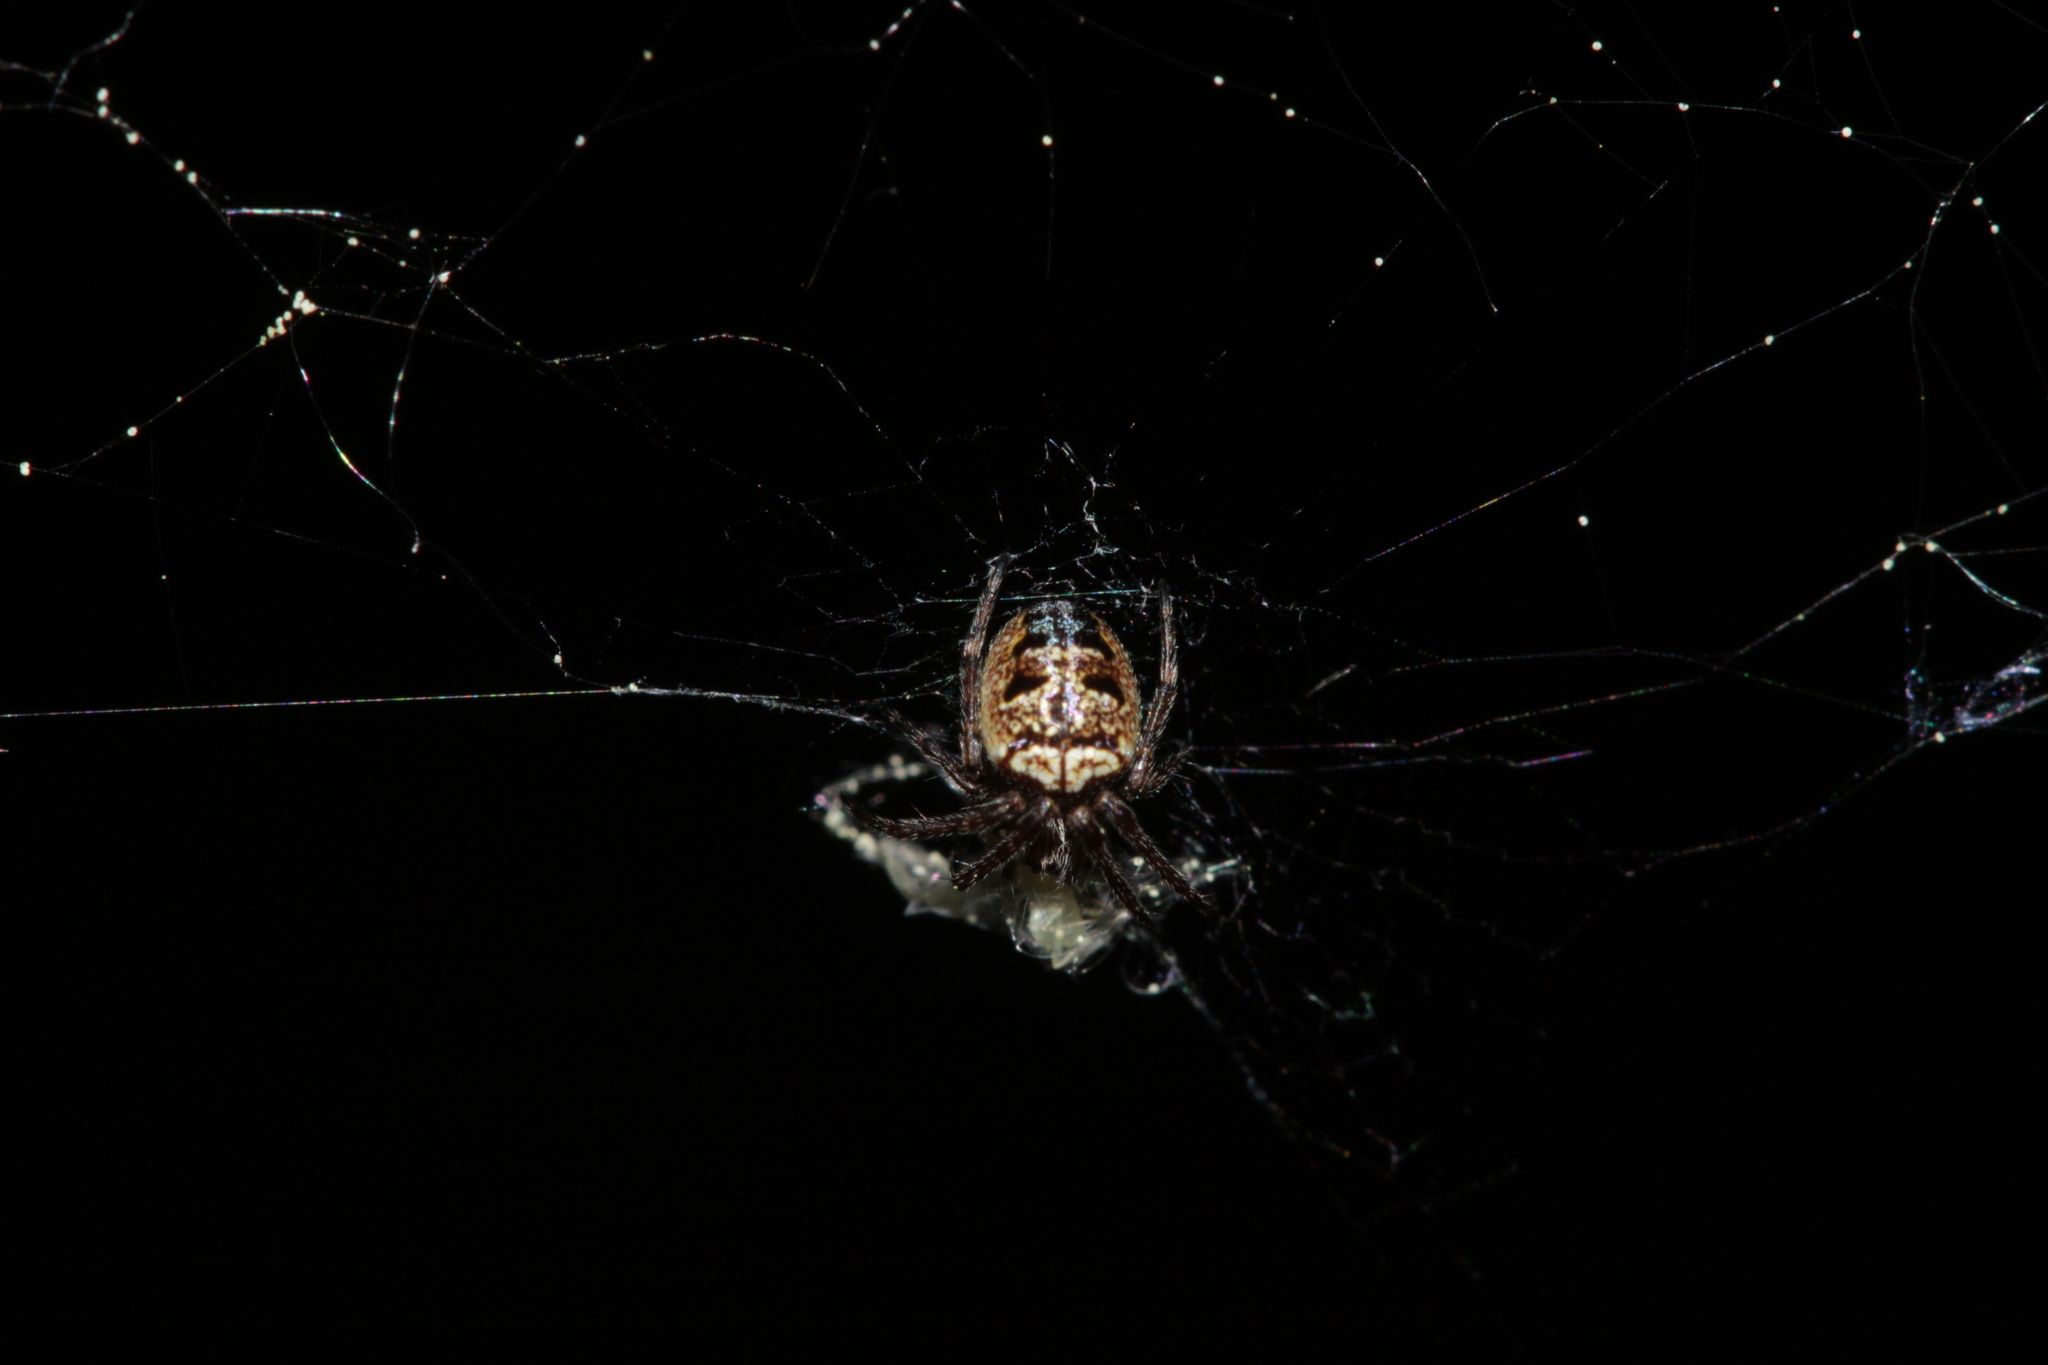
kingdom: Animalia
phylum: Arthropoda
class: Arachnida
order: Araneae
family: Araneidae
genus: Zilla
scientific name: Zilla diodia
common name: Zilla diodia
